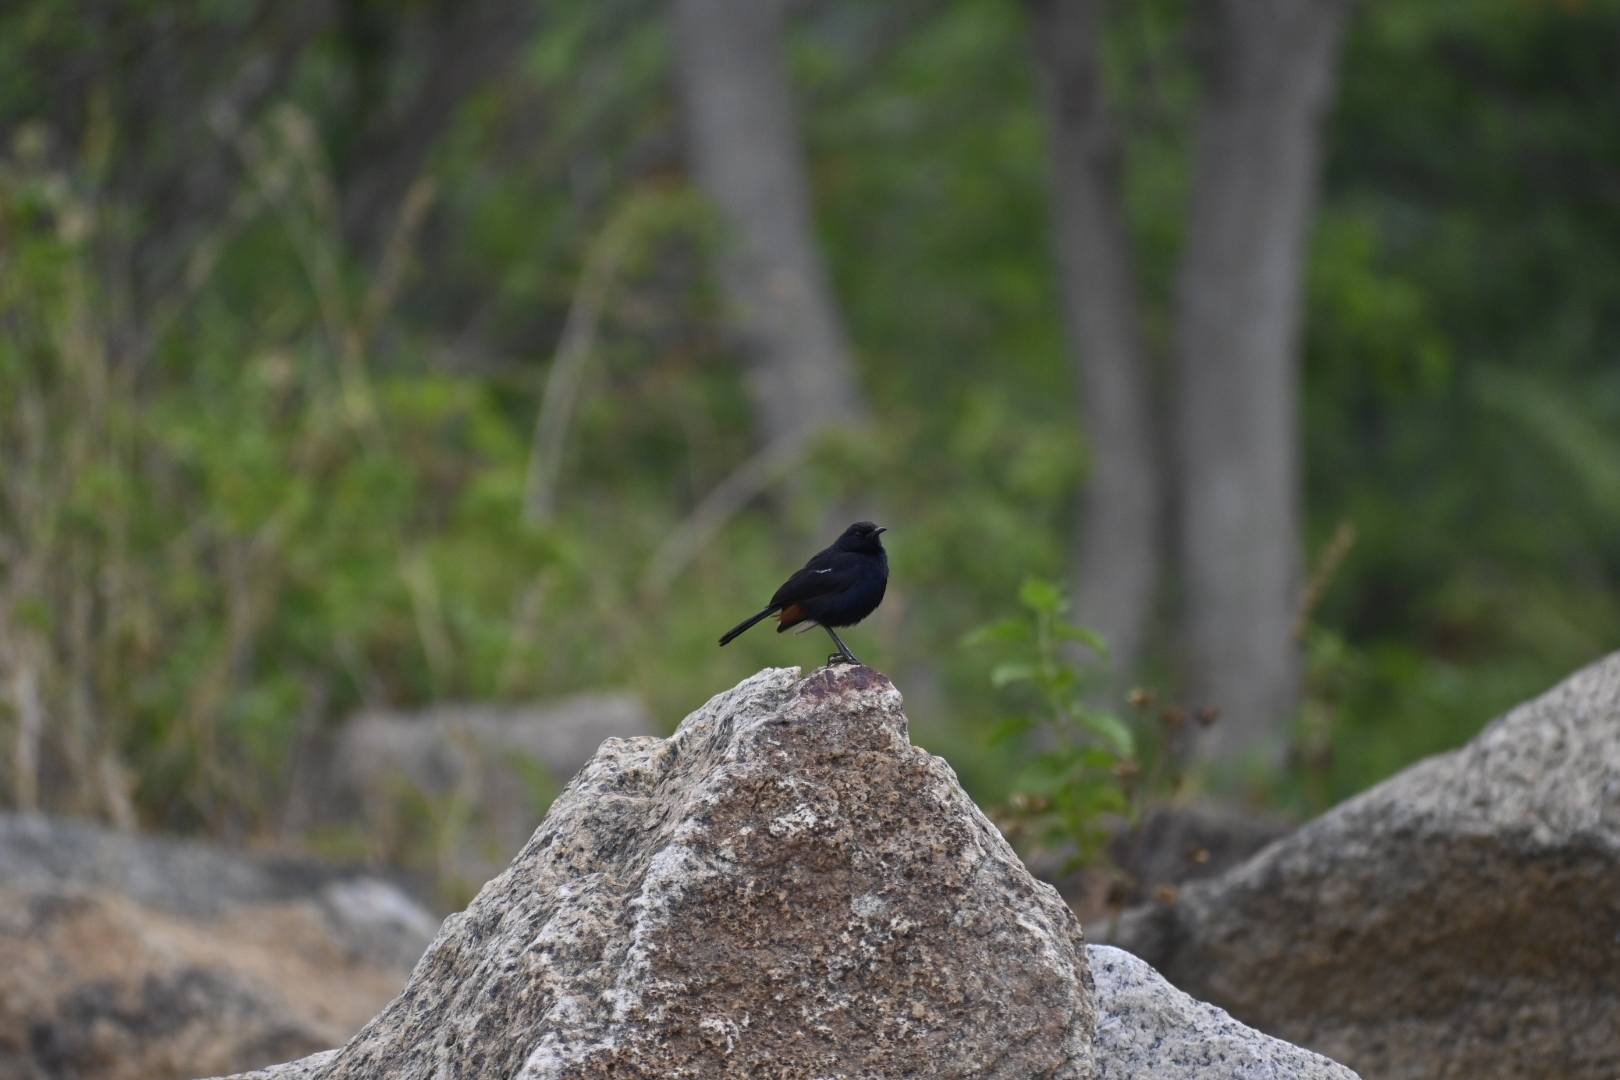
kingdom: Animalia
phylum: Chordata
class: Aves
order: Passeriformes
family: Muscicapidae
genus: Saxicoloides
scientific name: Saxicoloides fulicatus
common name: Indian robin
